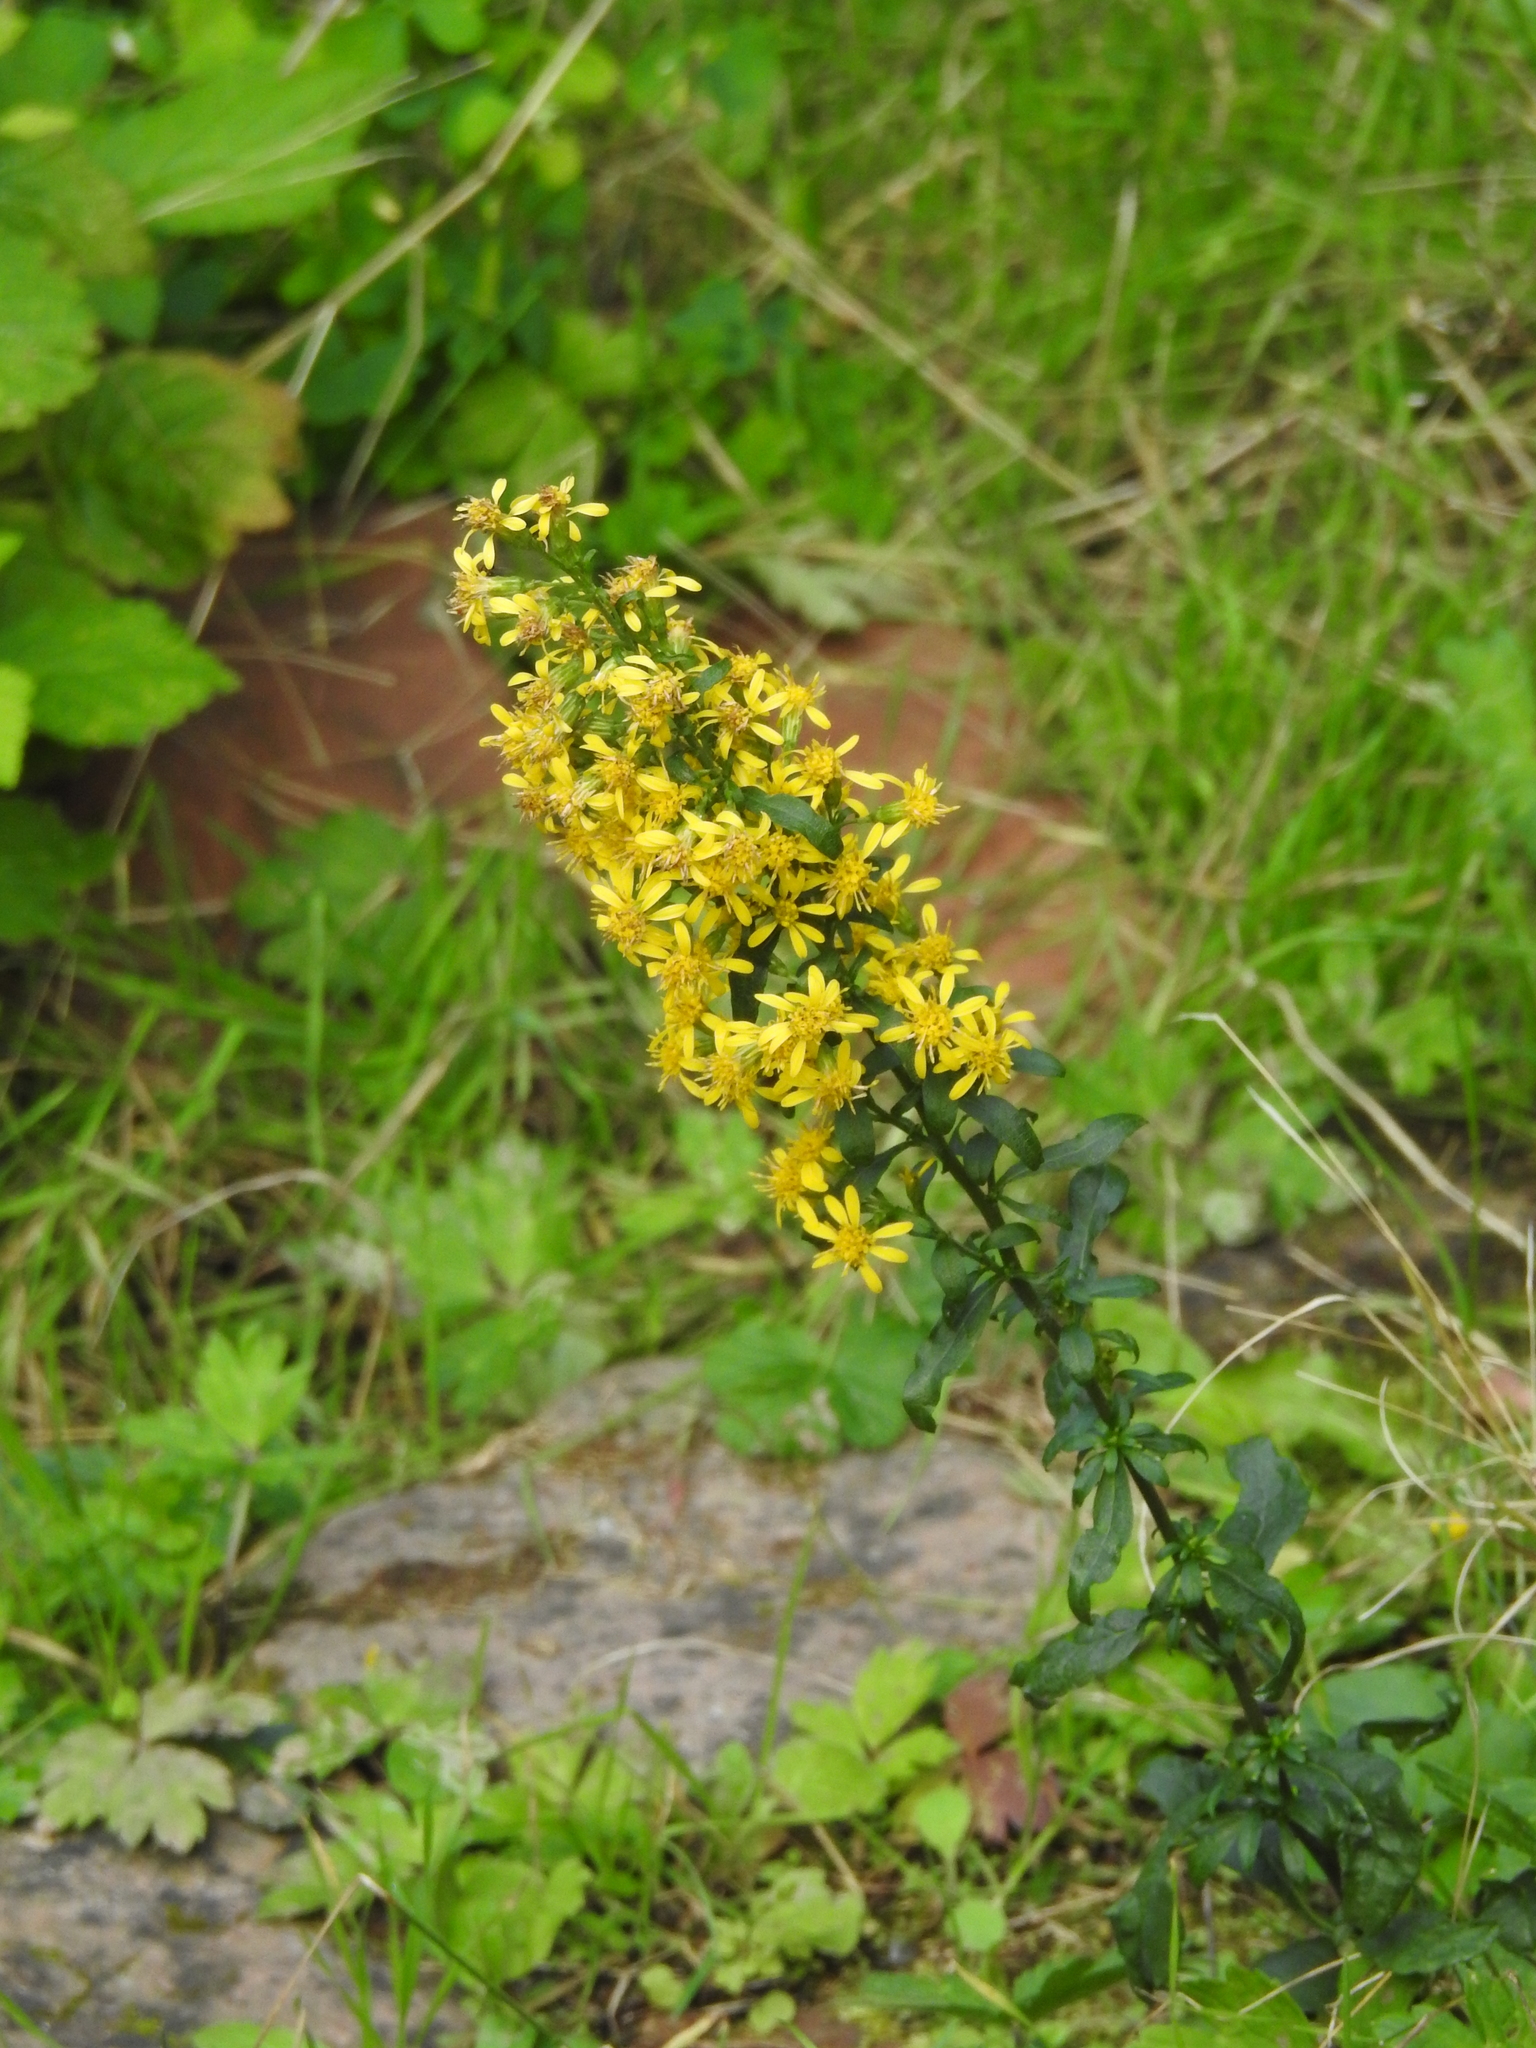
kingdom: Plantae
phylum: Tracheophyta
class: Magnoliopsida
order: Asterales
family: Asteraceae
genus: Solidago
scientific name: Solidago virgaurea
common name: Goldenrod
